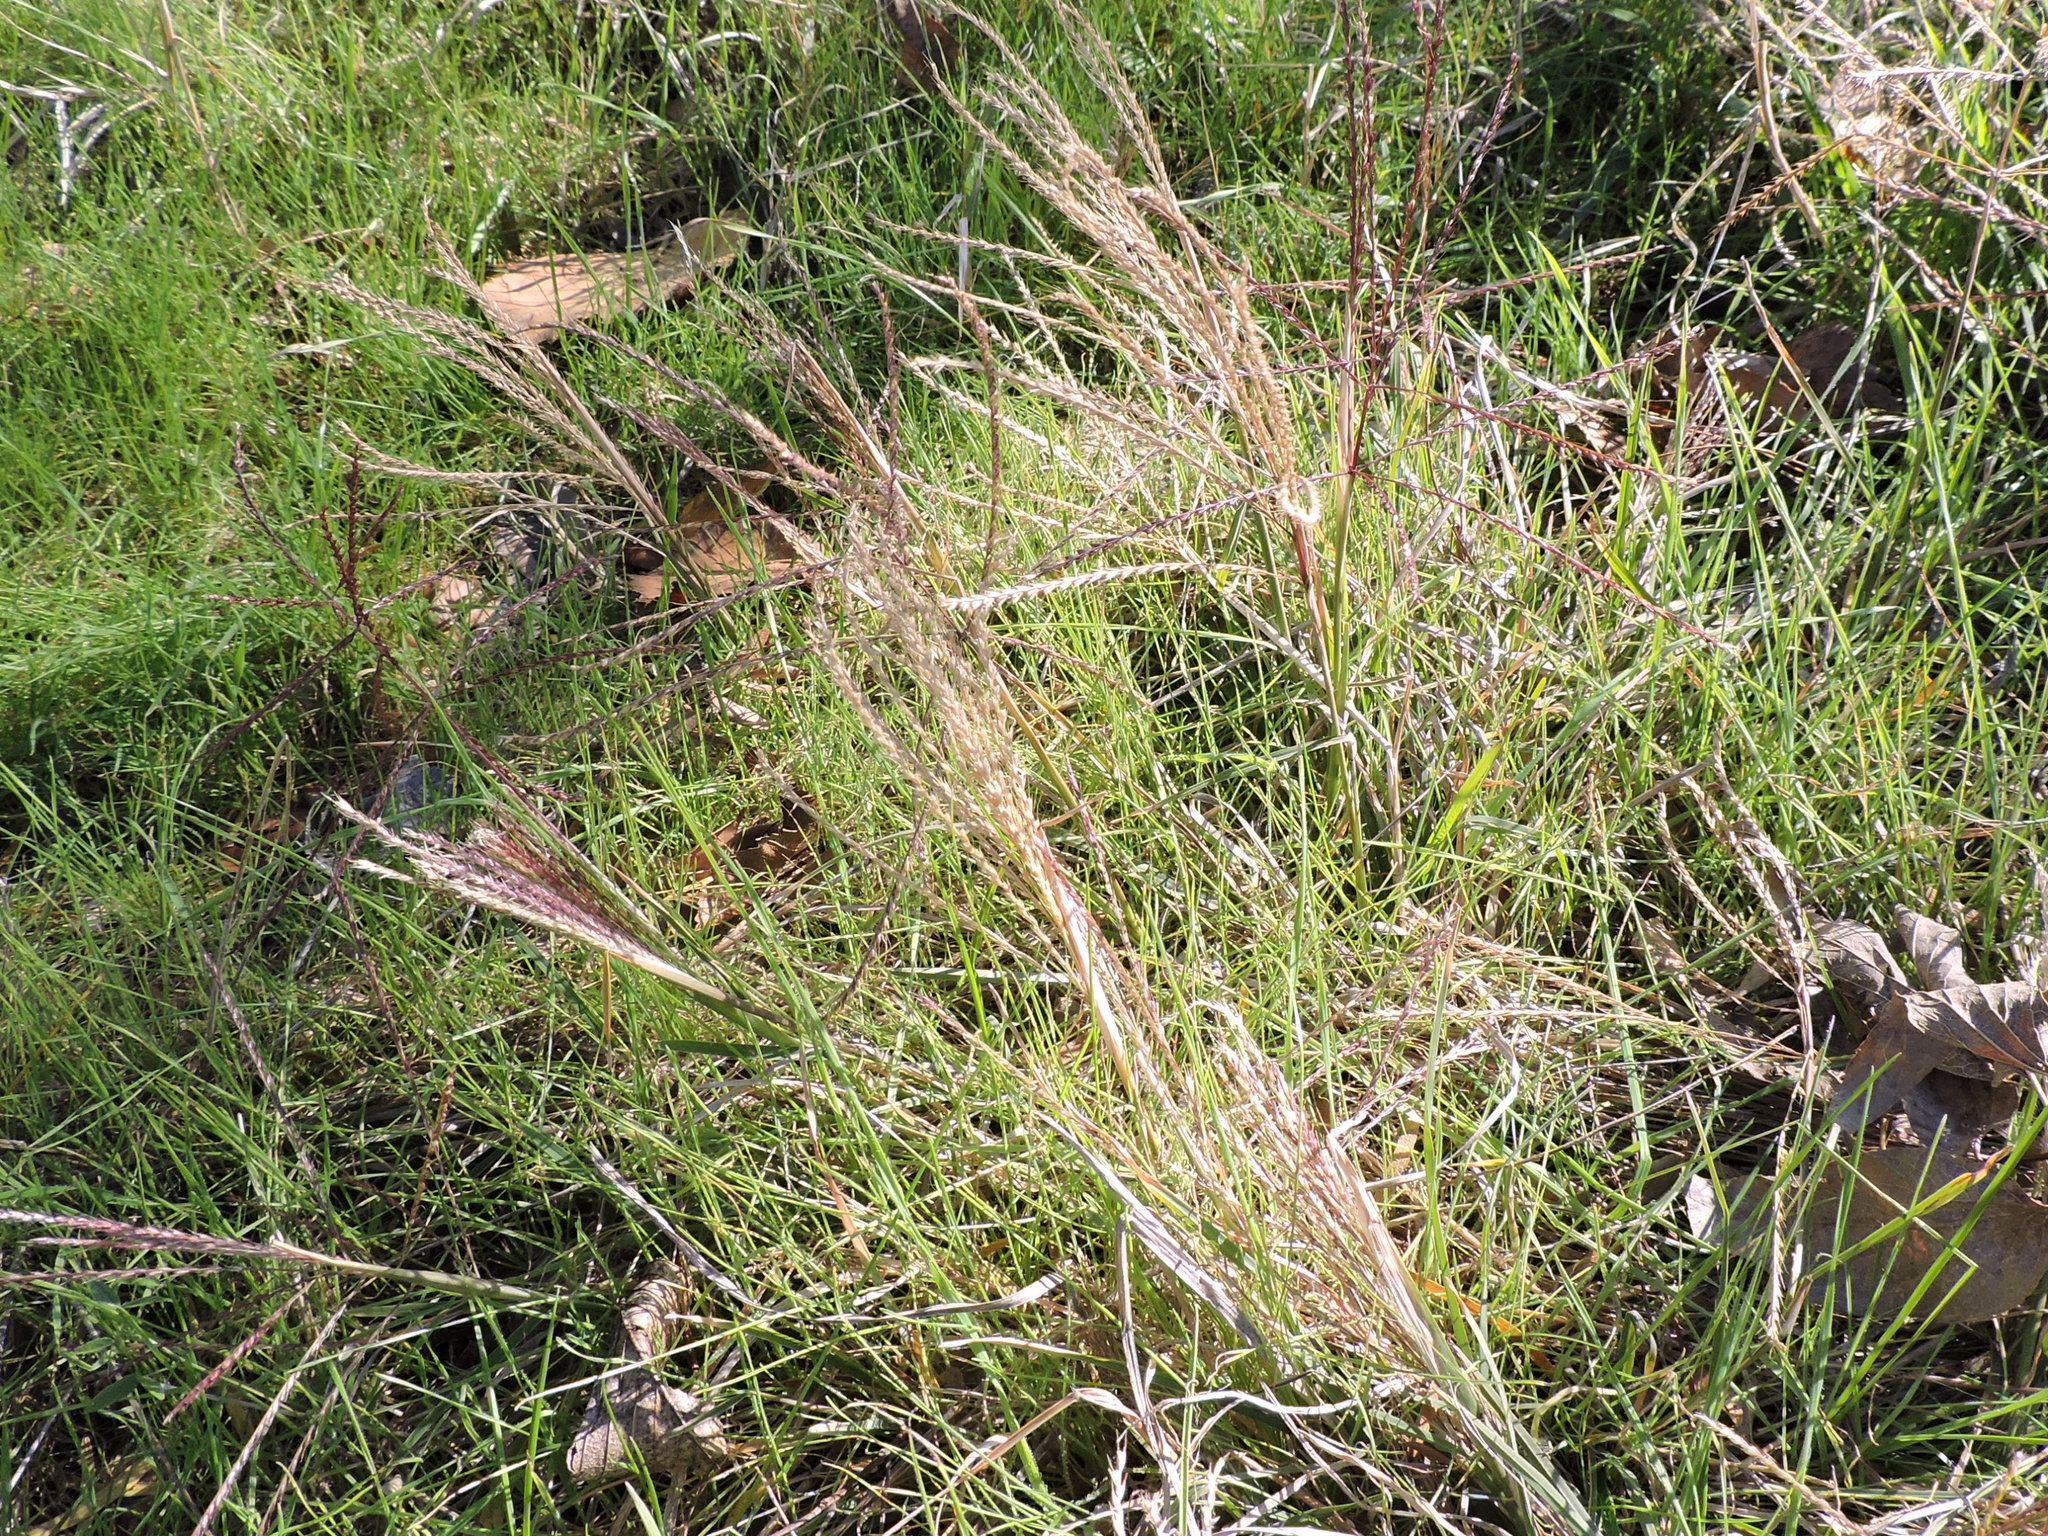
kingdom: Plantae
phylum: Tracheophyta
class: Liliopsida
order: Poales
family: Poaceae
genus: Chloris
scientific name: Chloris verticillata
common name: Tumble windmill grass
